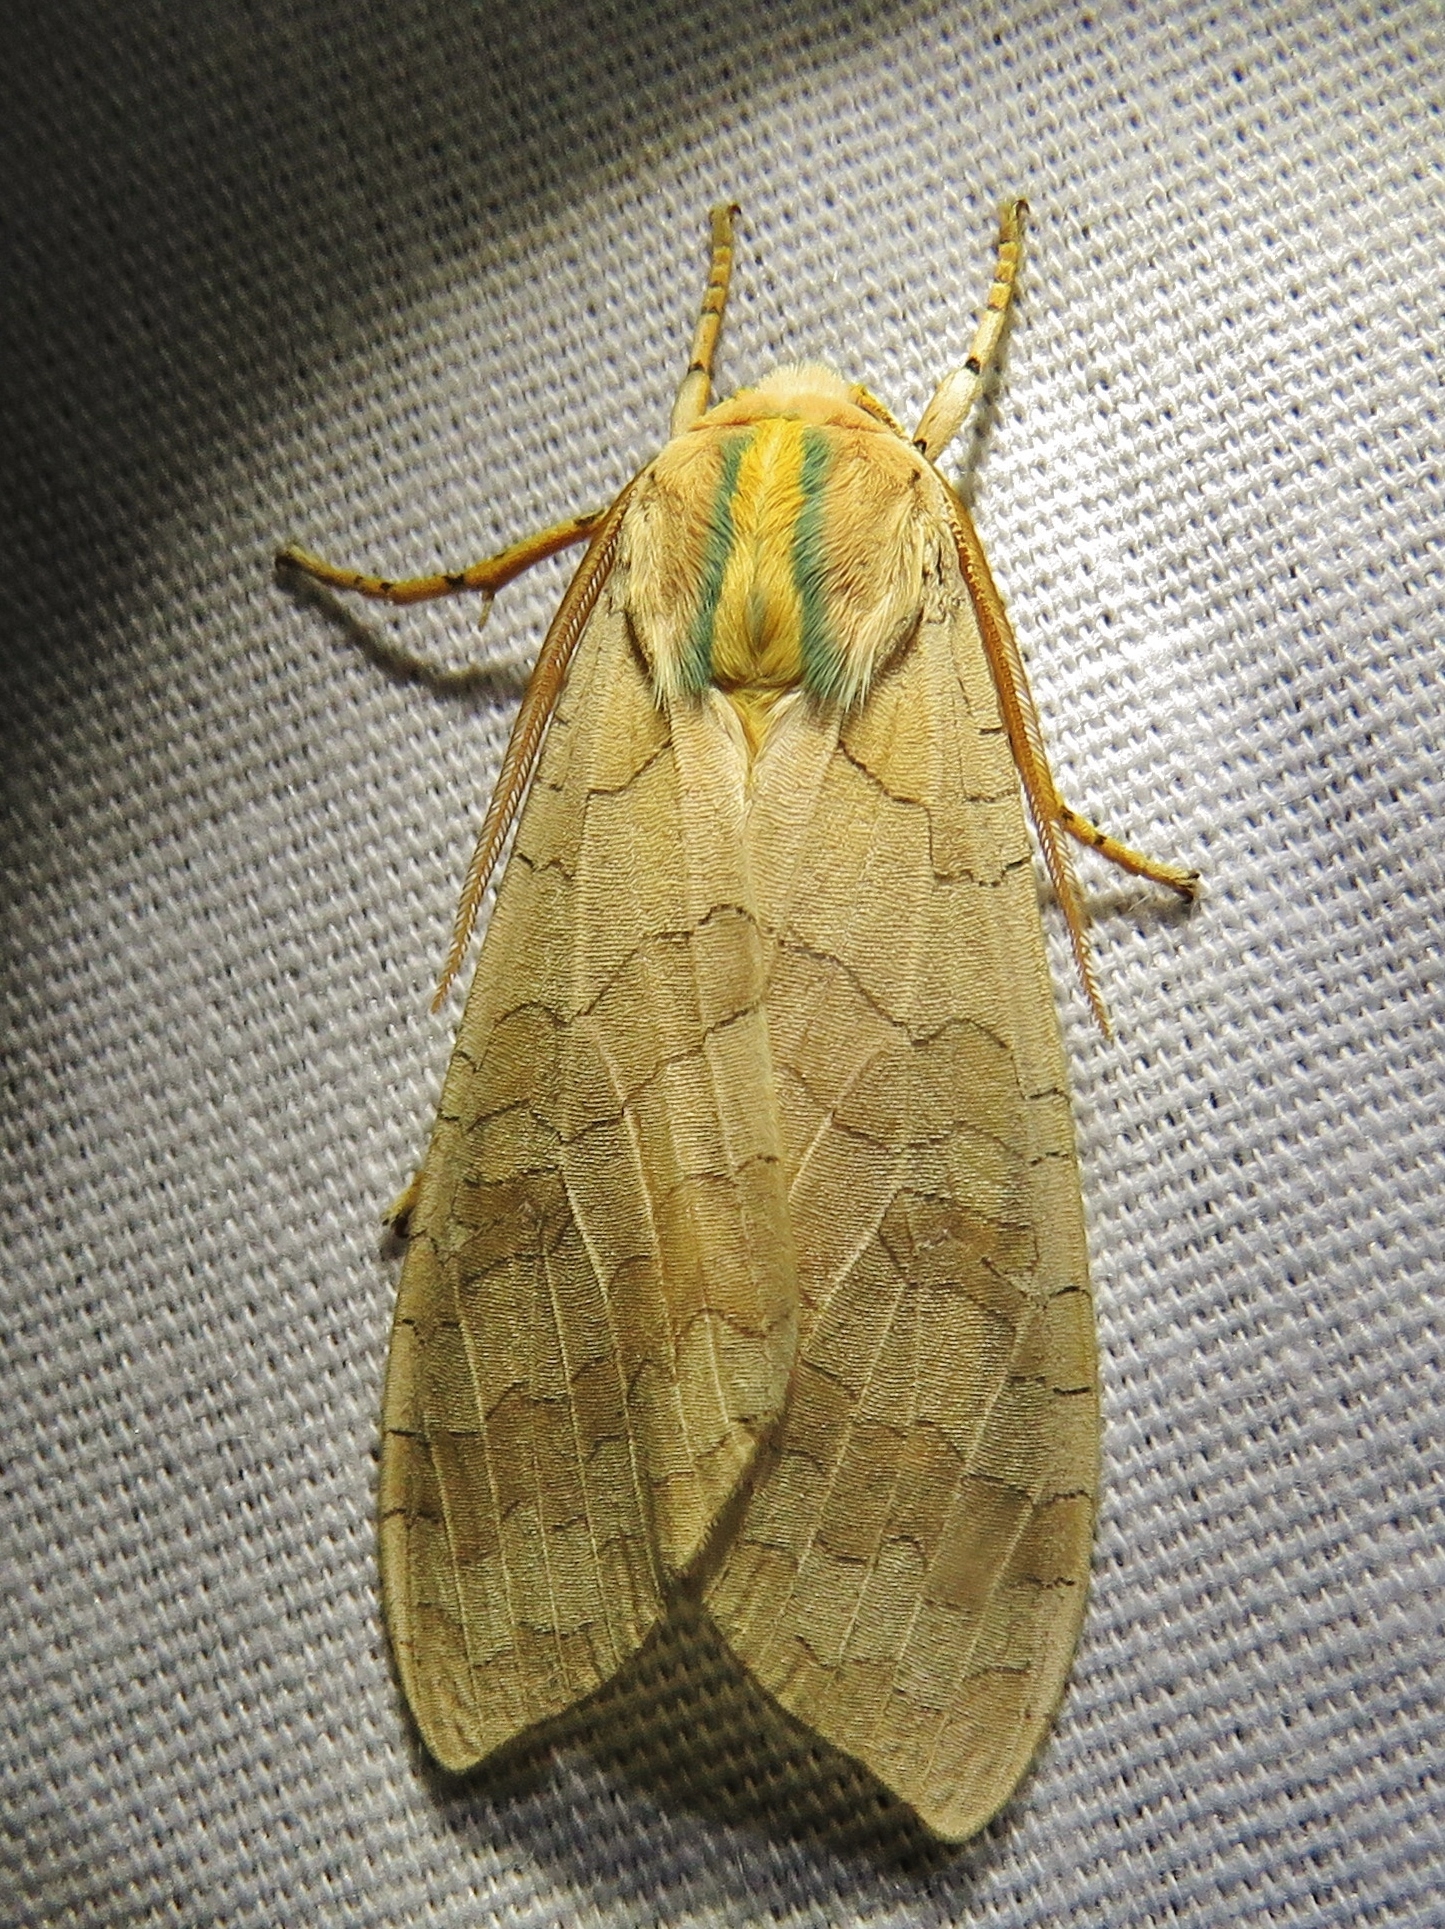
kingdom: Animalia
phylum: Arthropoda
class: Insecta
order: Lepidoptera
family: Erebidae
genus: Halysidota
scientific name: Halysidota tessellaris
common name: Banded tussock moth
